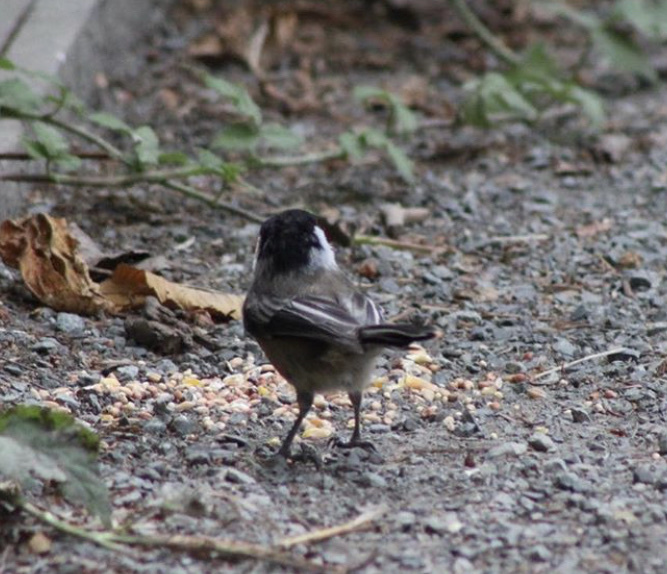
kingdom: Animalia
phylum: Chordata
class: Aves
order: Passeriformes
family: Paridae
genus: Poecile
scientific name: Poecile atricapillus
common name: Black-capped chickadee
